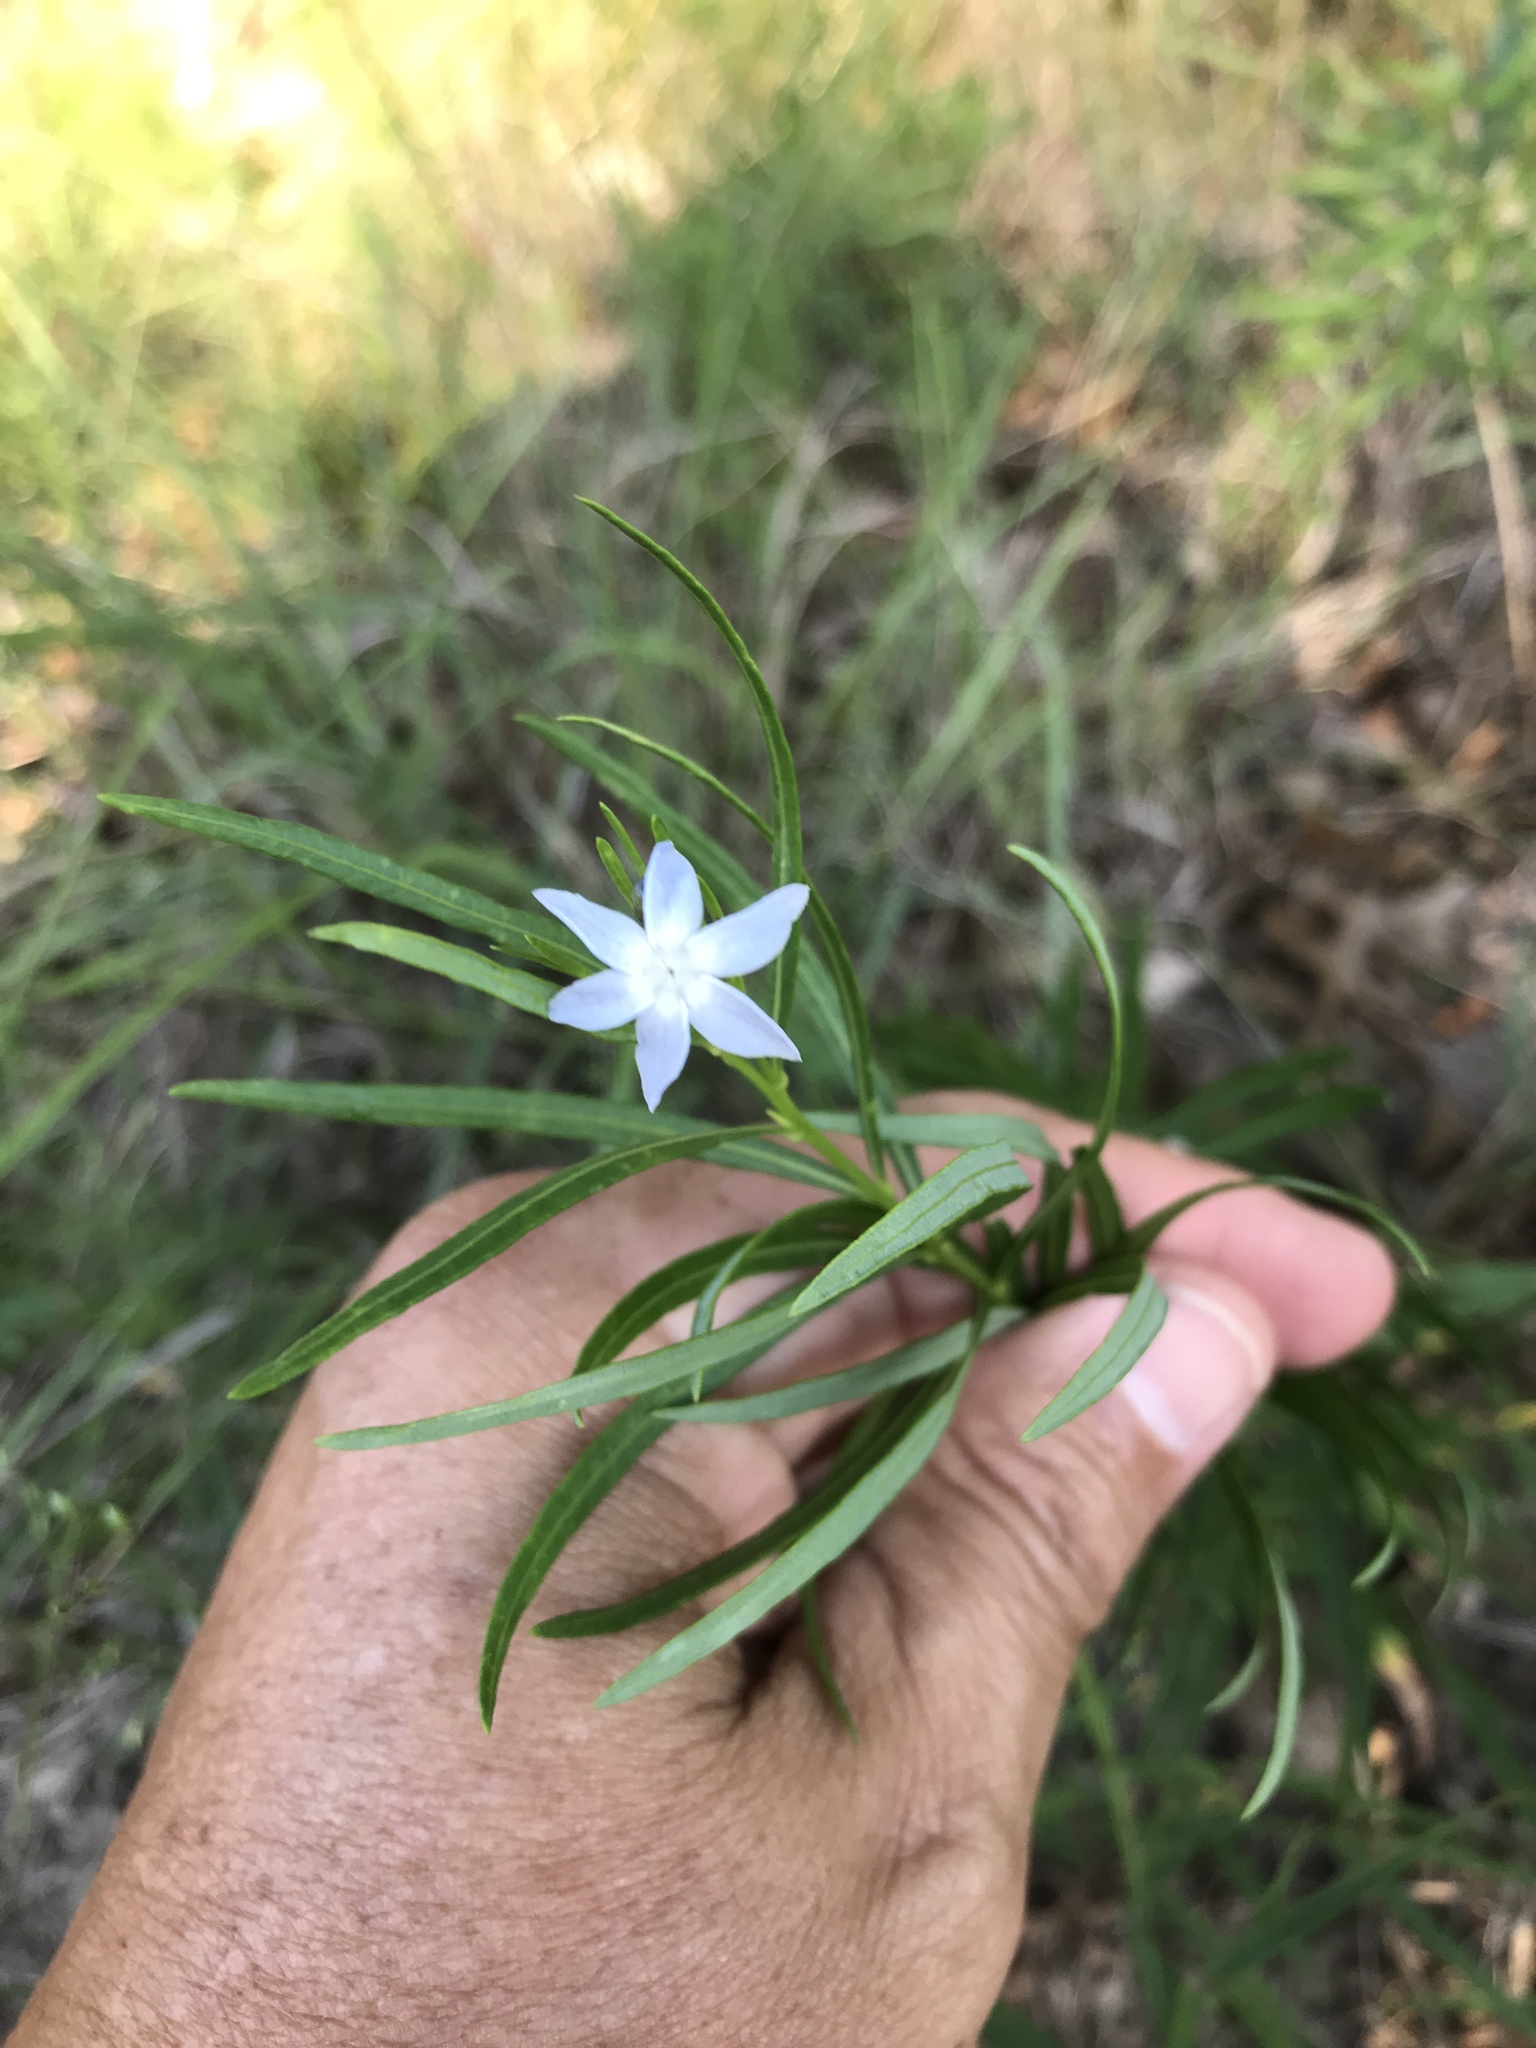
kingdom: Plantae
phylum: Tracheophyta
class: Magnoliopsida
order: Gentianales
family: Apocynaceae
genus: Amsonia
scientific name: Amsonia ciliata
